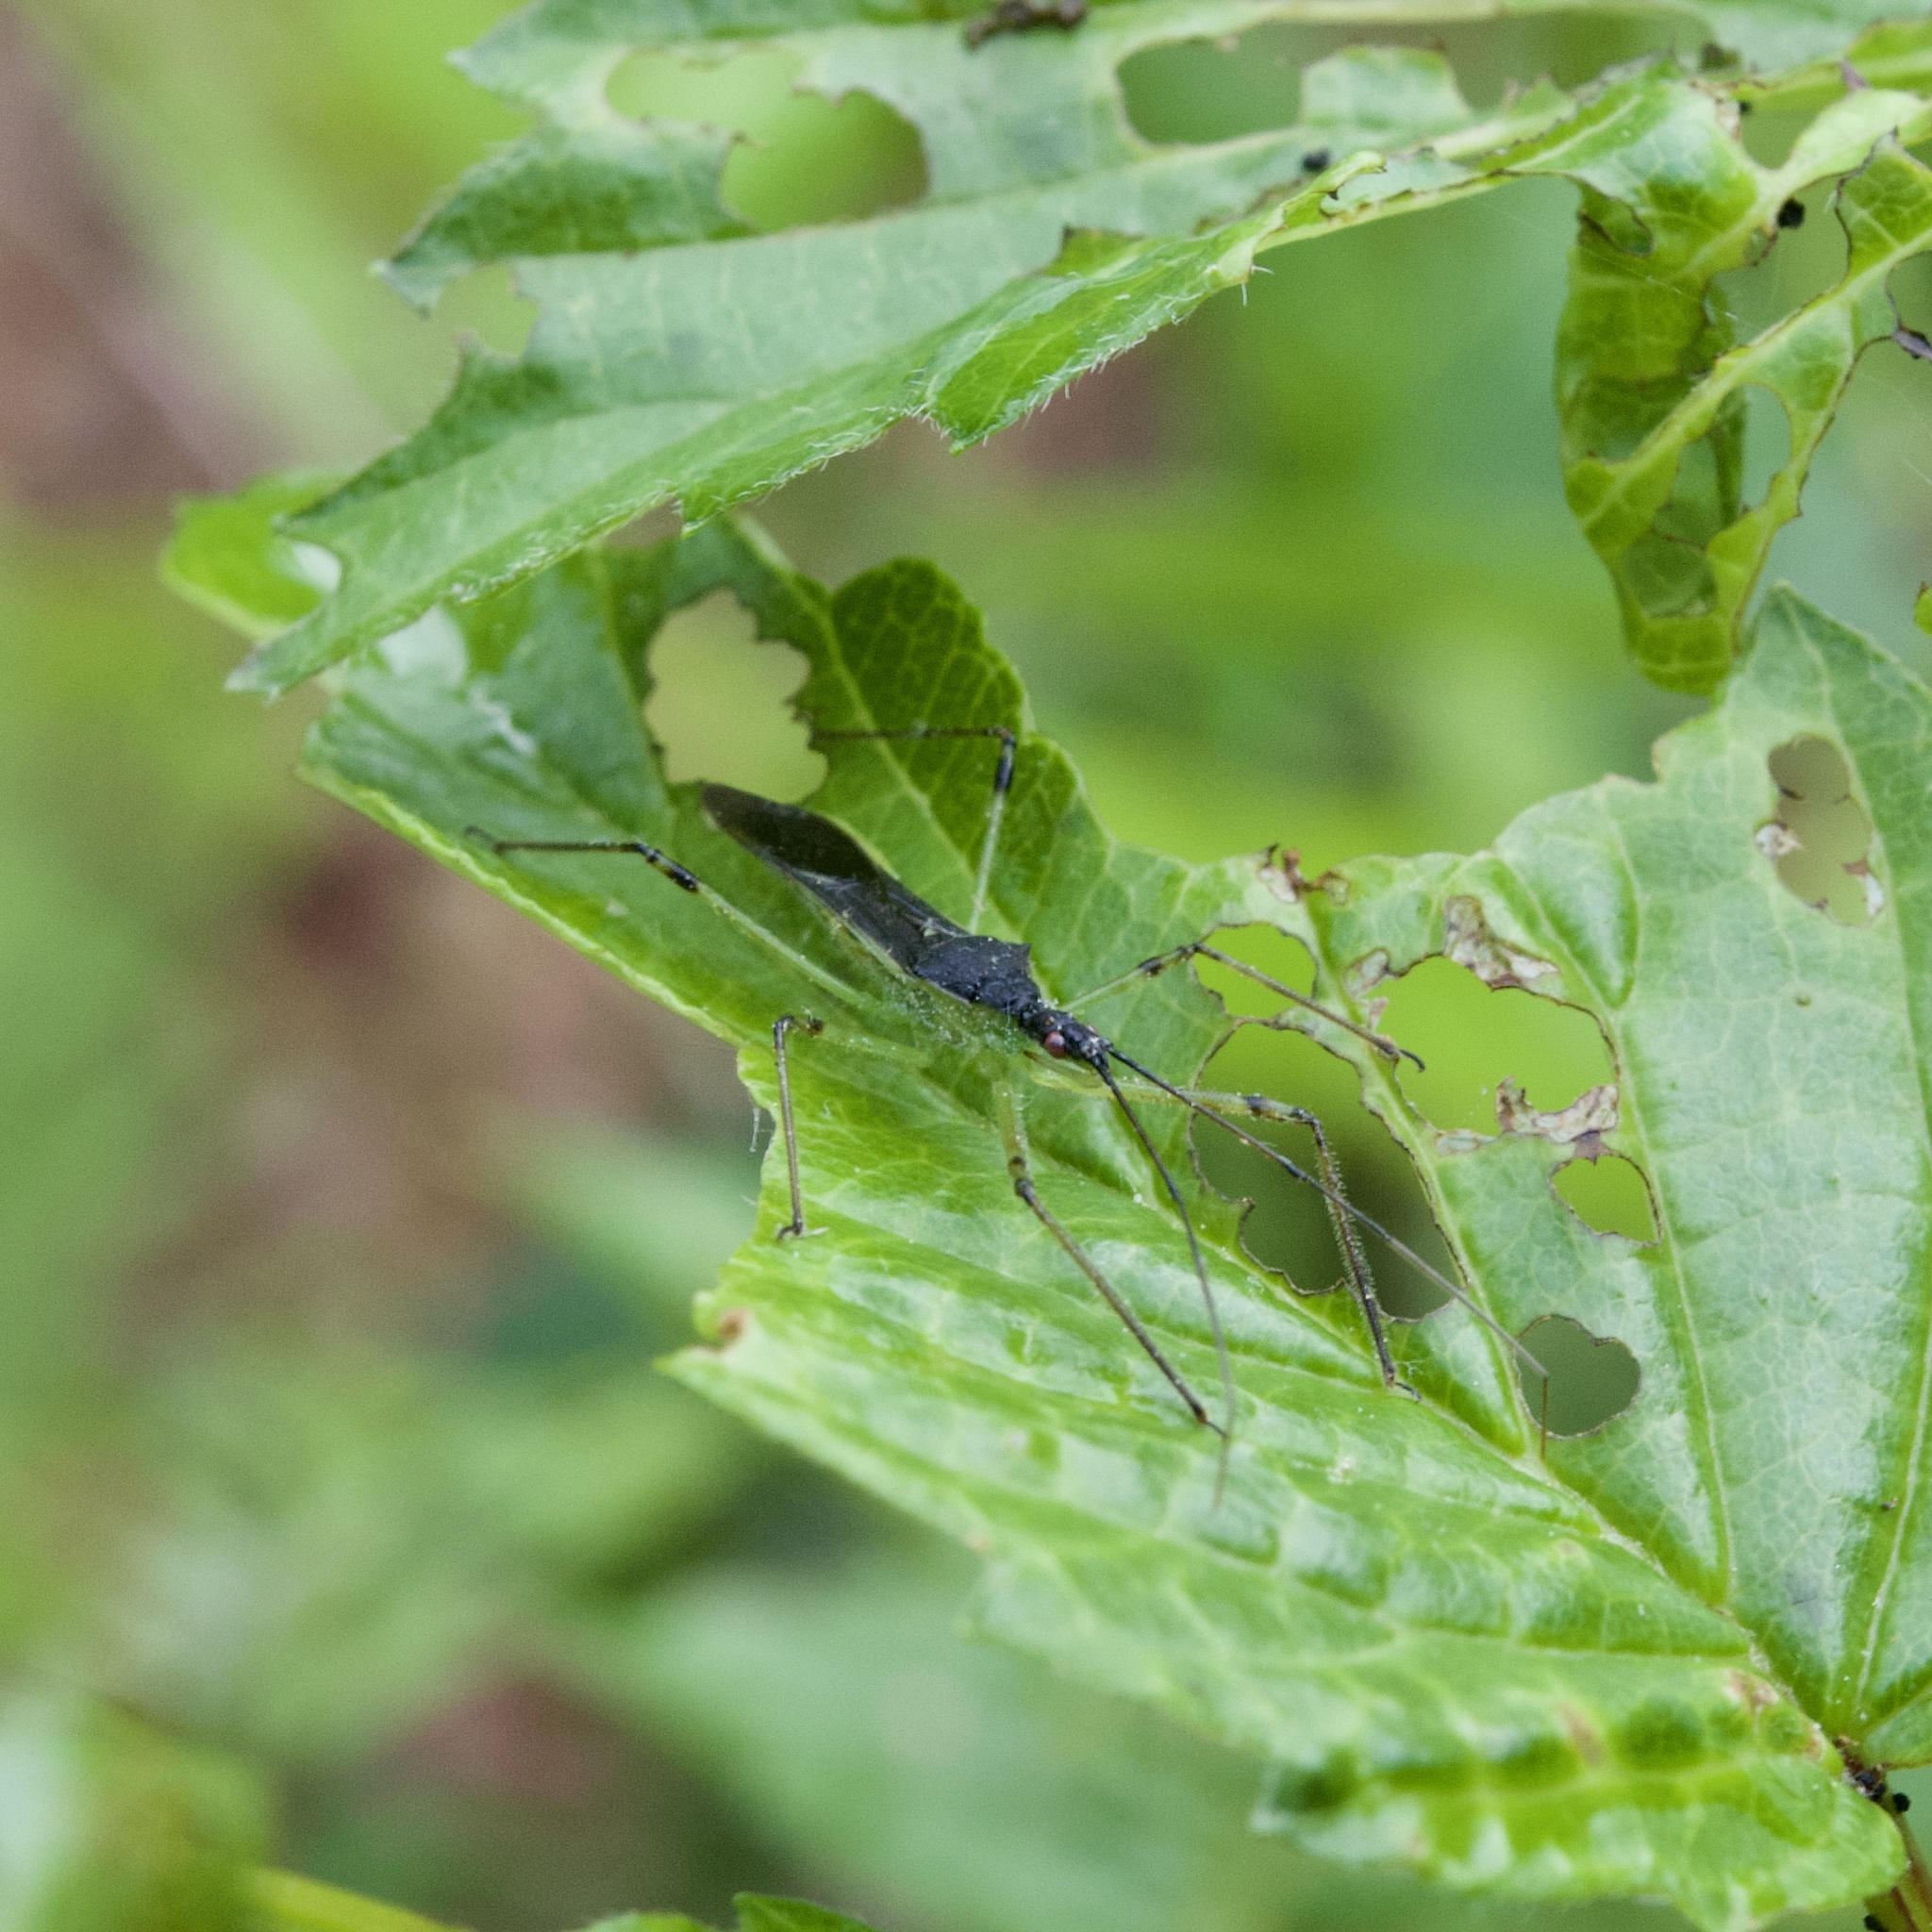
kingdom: Animalia
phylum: Arthropoda
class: Insecta
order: Hemiptera
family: Reduviidae
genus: Zelus
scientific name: Zelus luridus
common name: Pale green assassin bug
